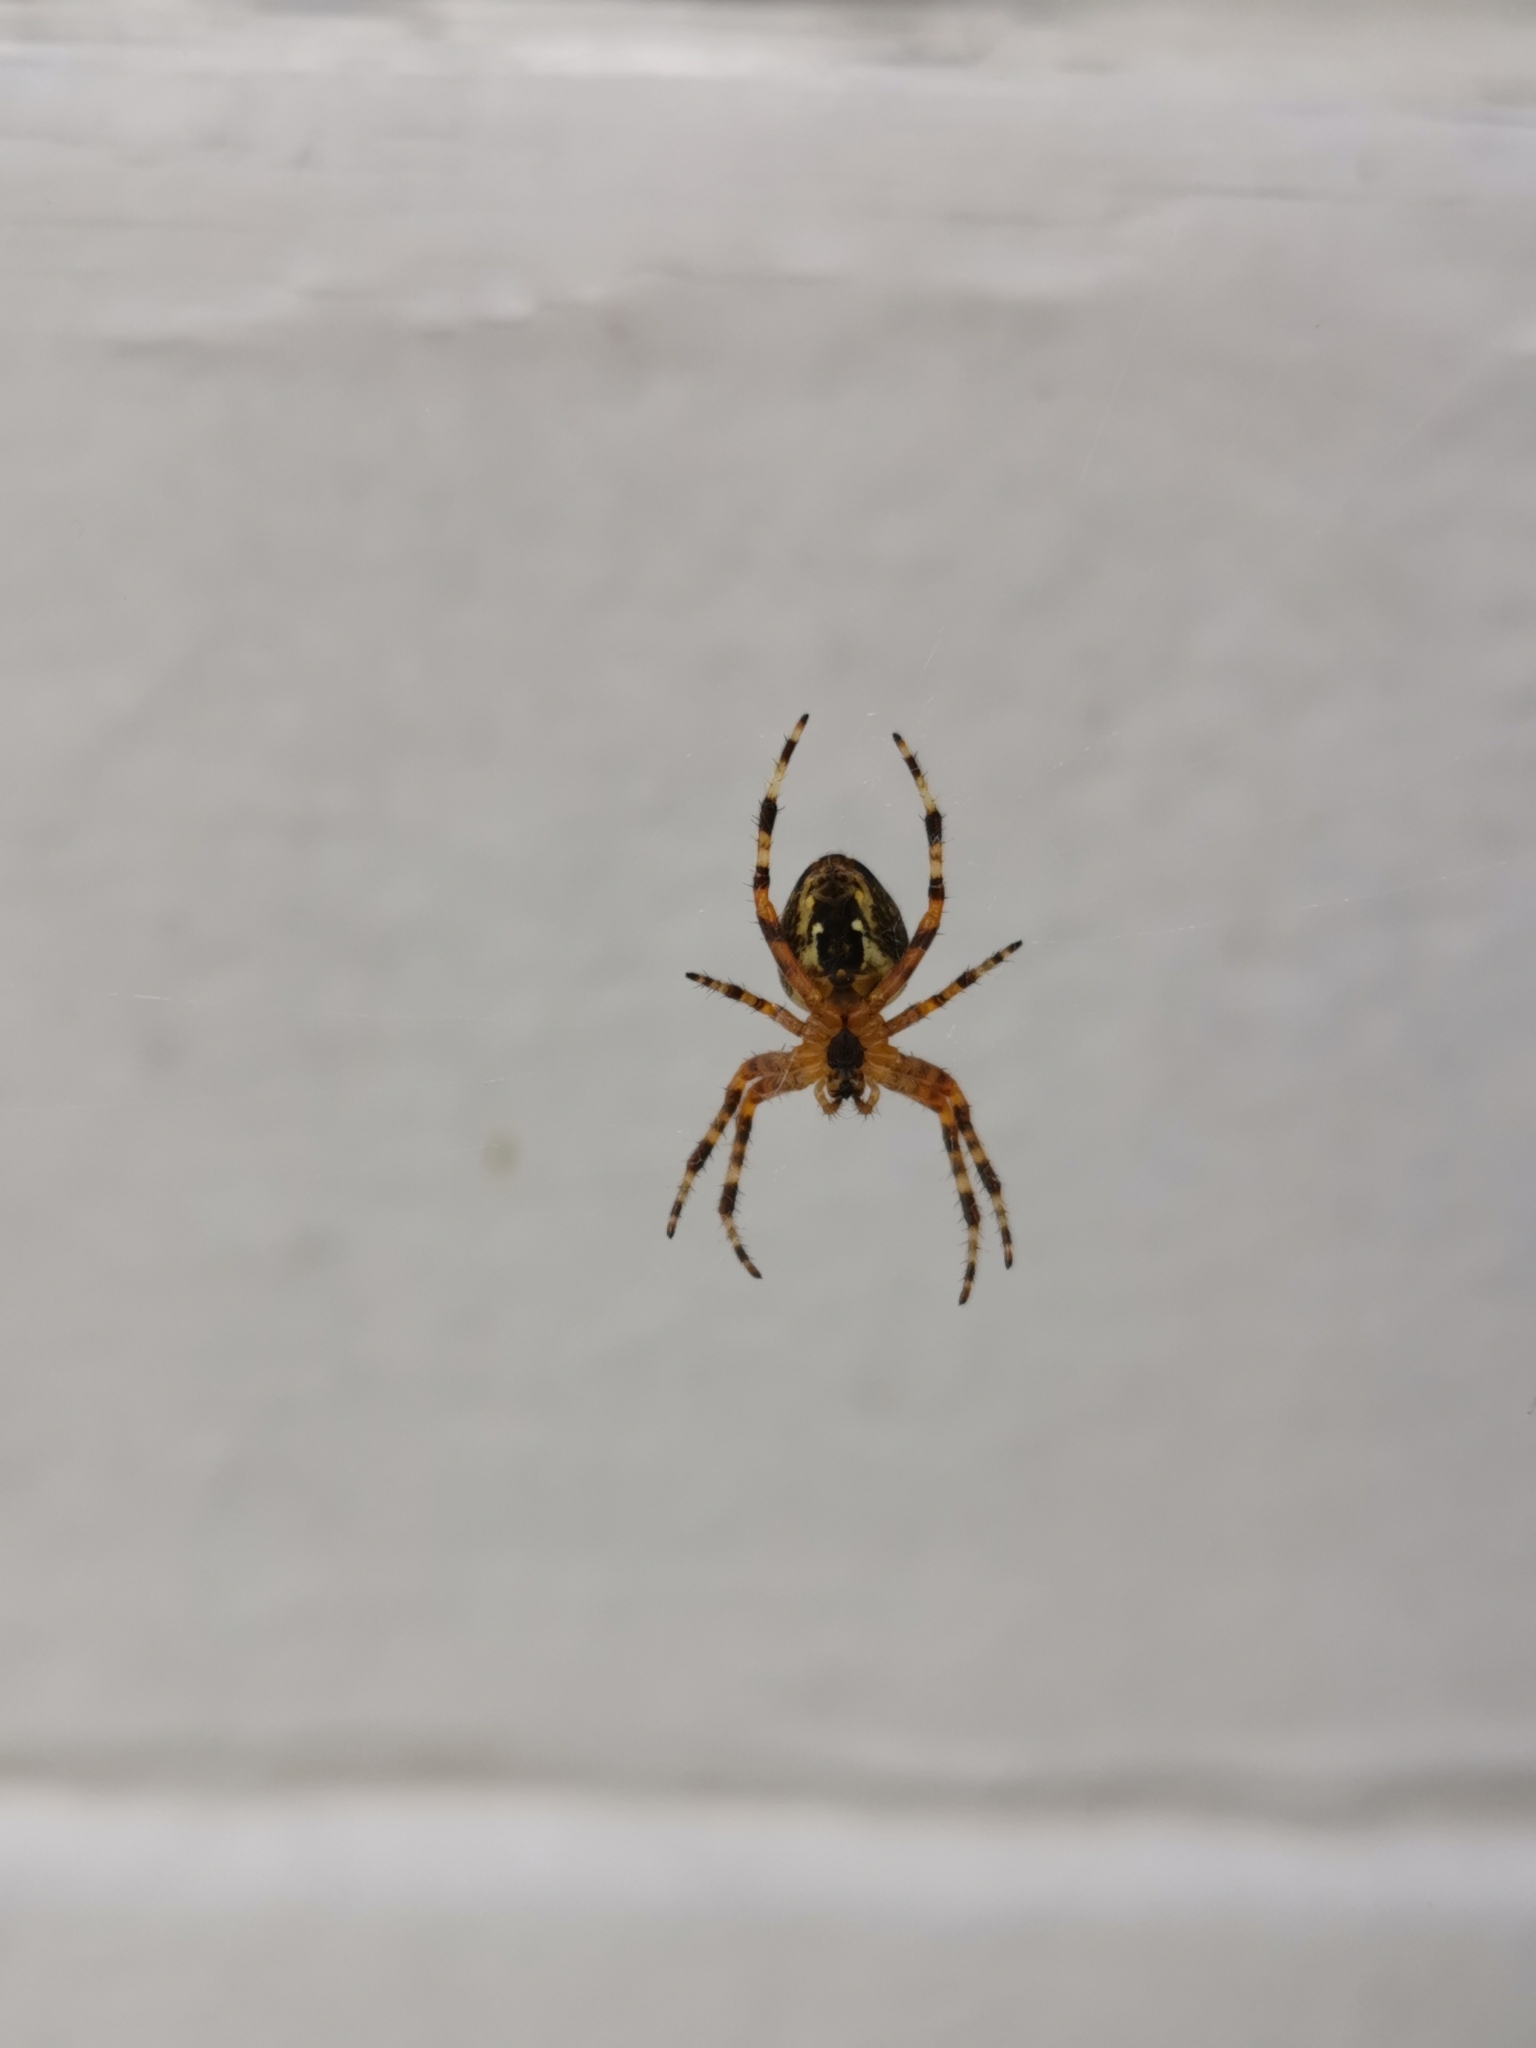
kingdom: Animalia
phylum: Arthropoda
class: Arachnida
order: Araneae
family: Araneidae
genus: Araneus
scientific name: Araneus diadematus
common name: Cross orbweaver
